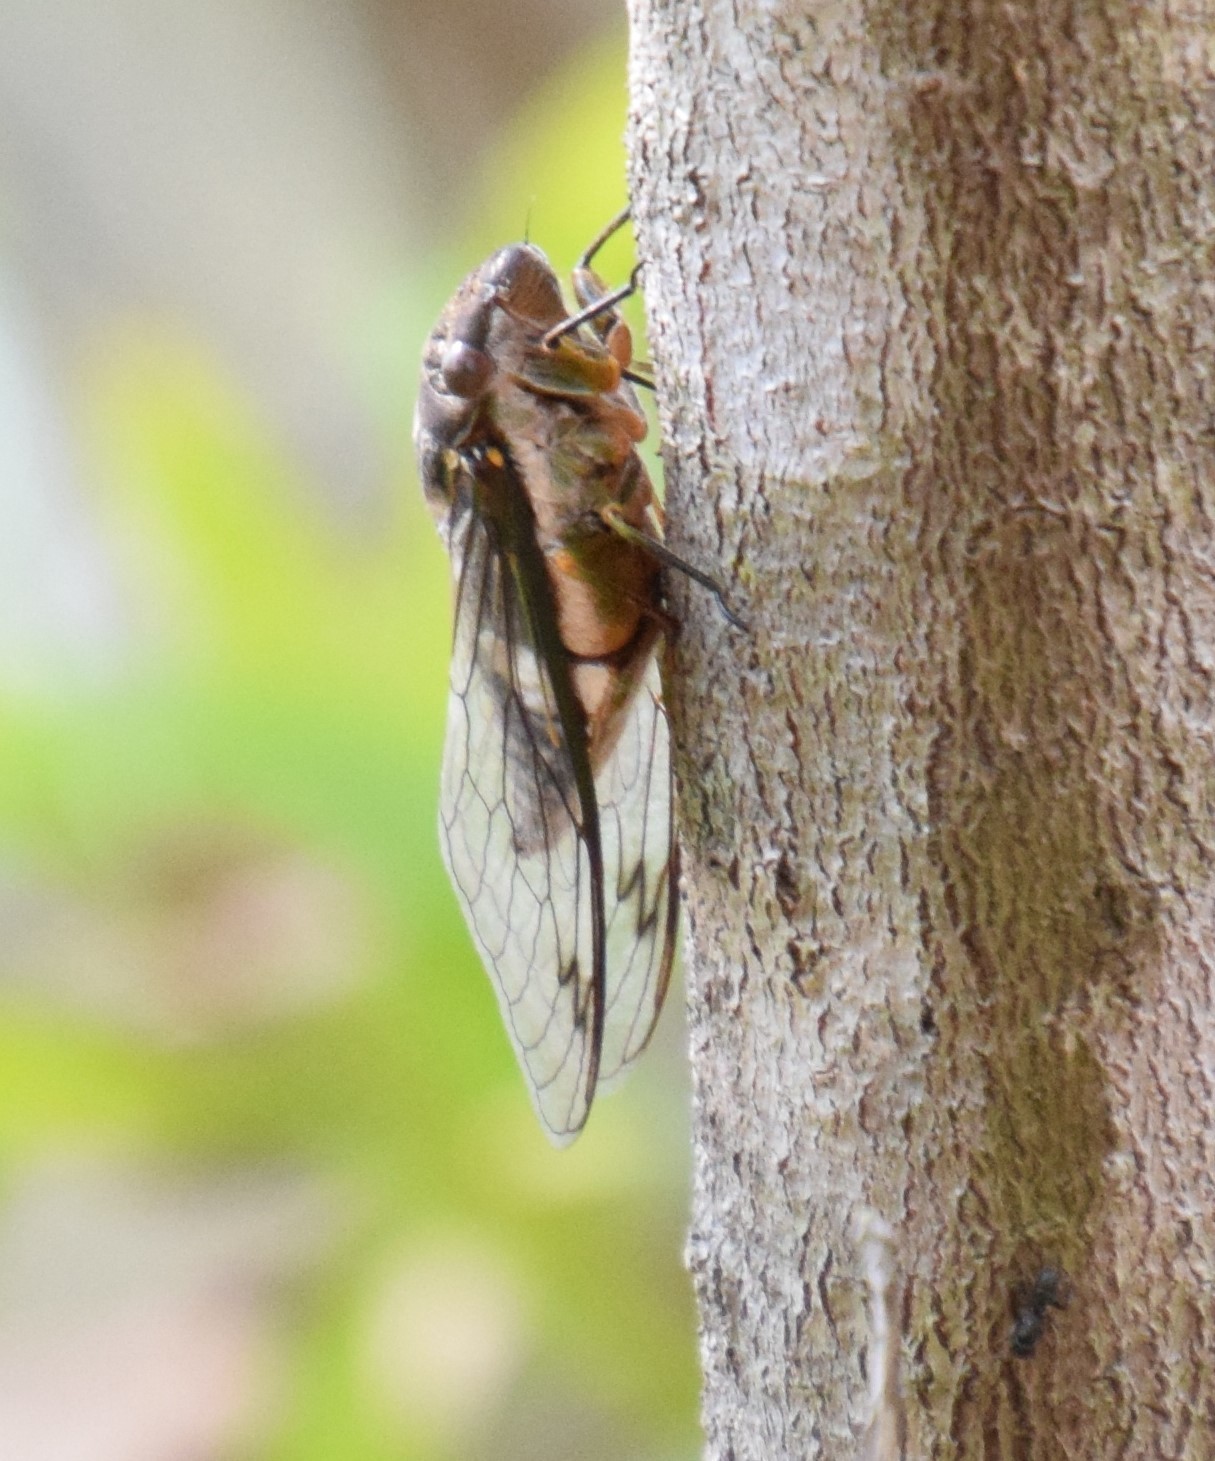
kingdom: Animalia
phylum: Arthropoda
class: Insecta
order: Hemiptera
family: Cicadidae
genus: Psaltoda
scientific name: Psaltoda plaga
